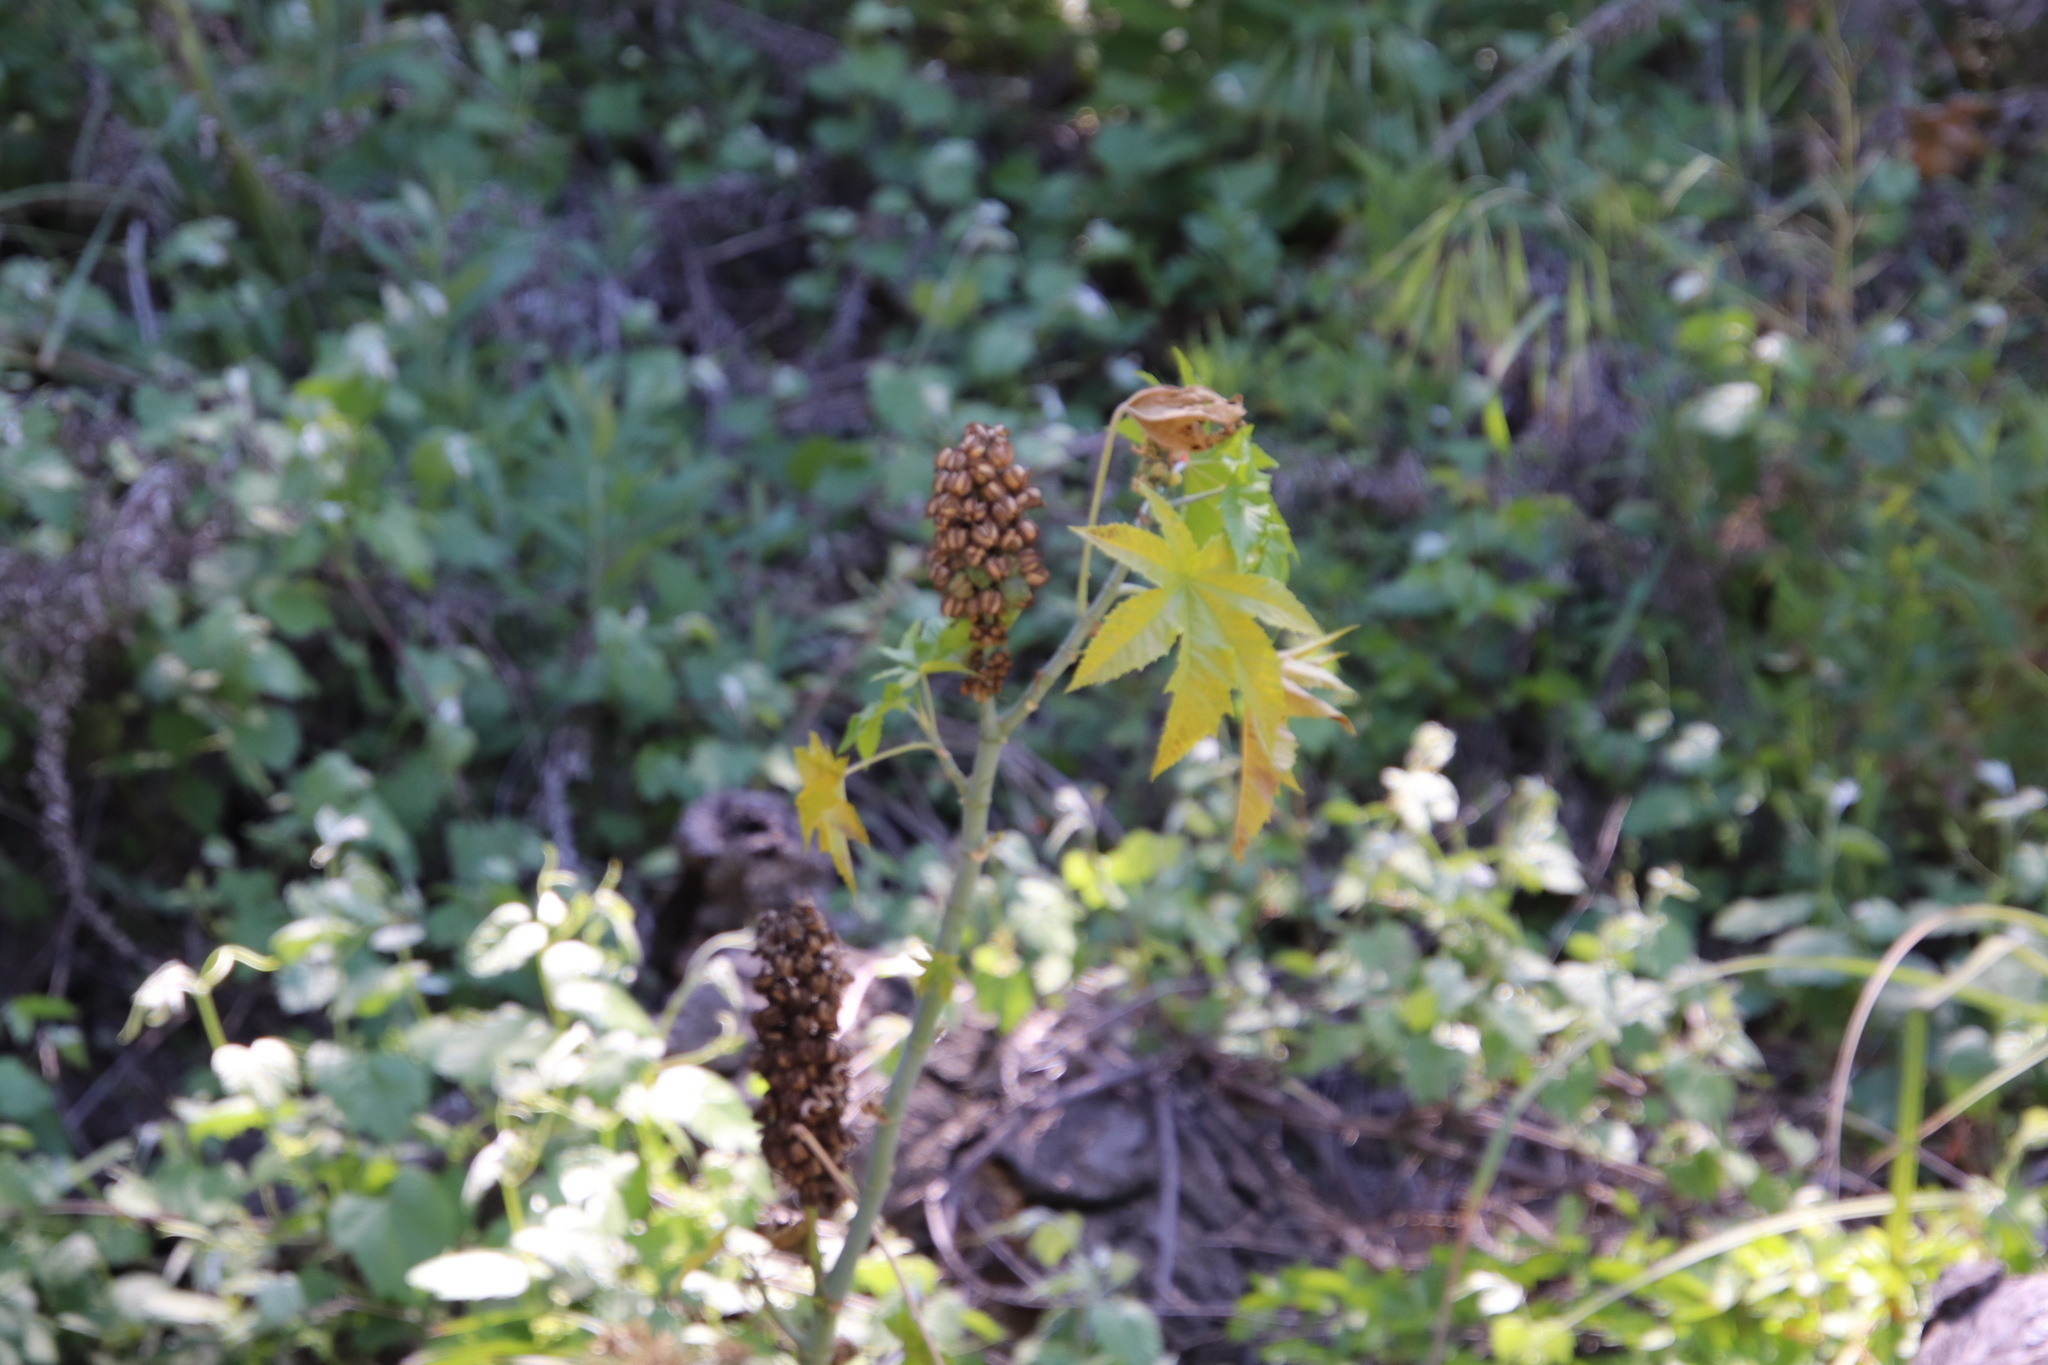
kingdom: Plantae
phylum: Tracheophyta
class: Magnoliopsida
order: Malpighiales
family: Euphorbiaceae
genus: Ricinus
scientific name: Ricinus communis
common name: Castor-oil-plant
